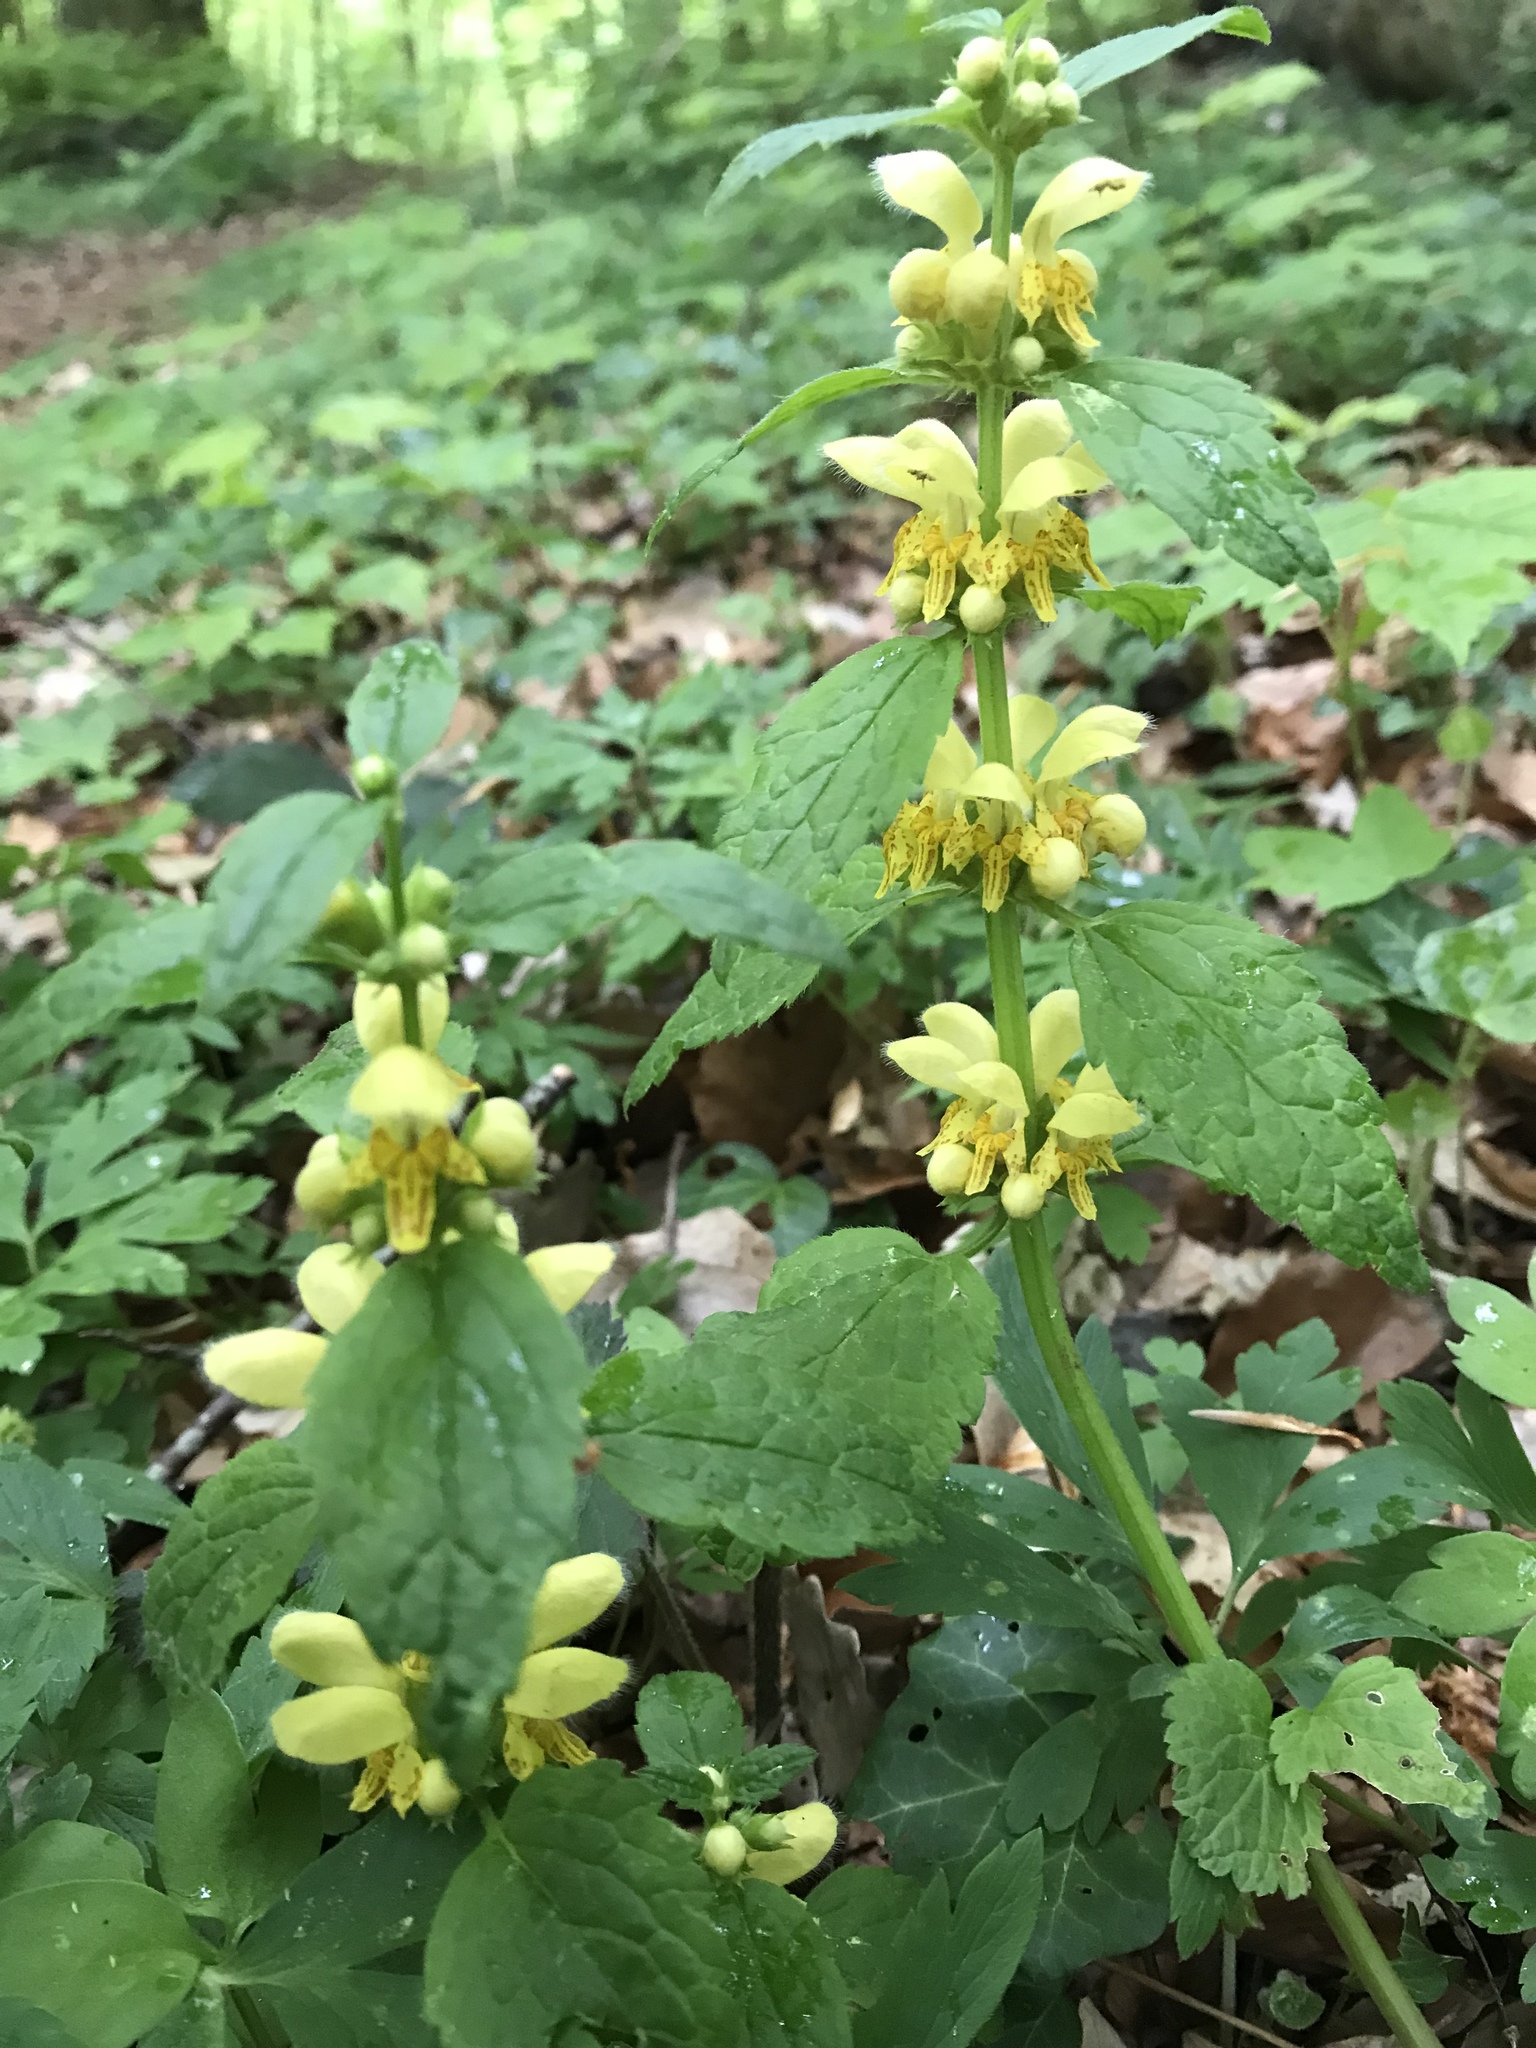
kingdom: Plantae
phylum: Tracheophyta
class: Magnoliopsida
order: Lamiales
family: Lamiaceae
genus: Lamium
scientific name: Lamium galeobdolon
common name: Yellow archangel
